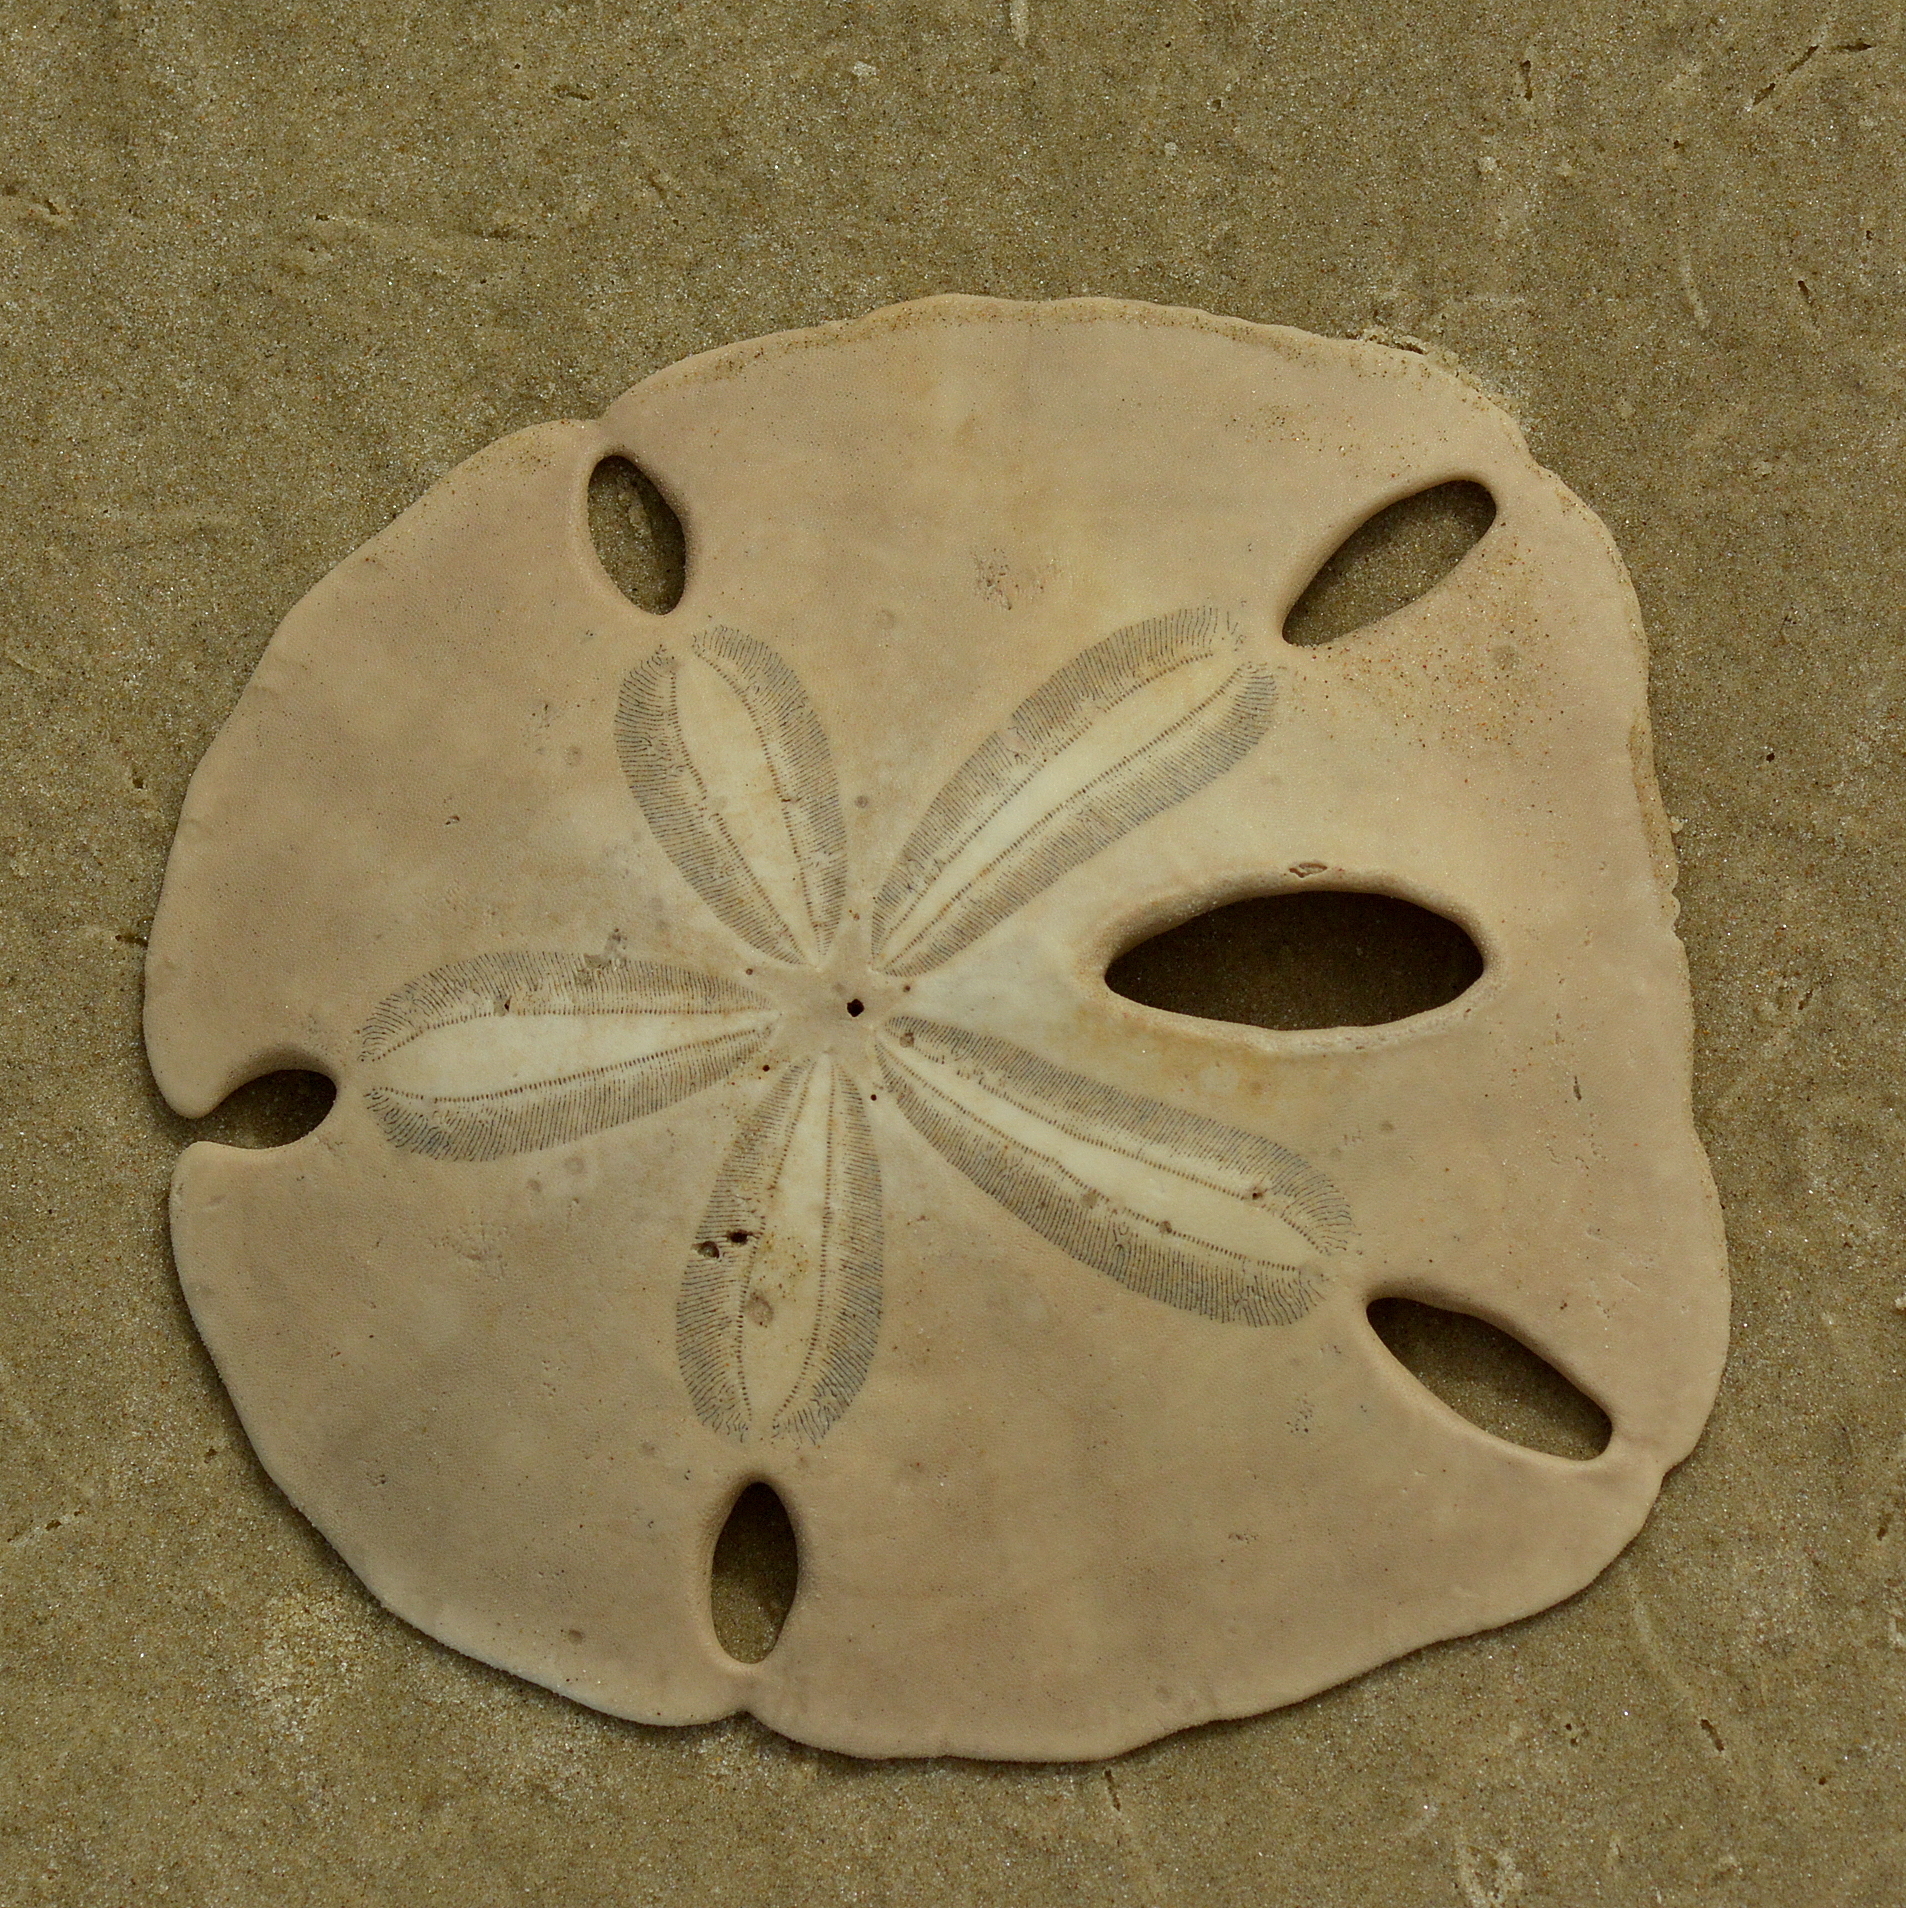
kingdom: Animalia
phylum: Echinodermata
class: Echinoidea
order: Echinolampadacea
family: Mellitidae
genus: Encope
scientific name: Encope emarginata
